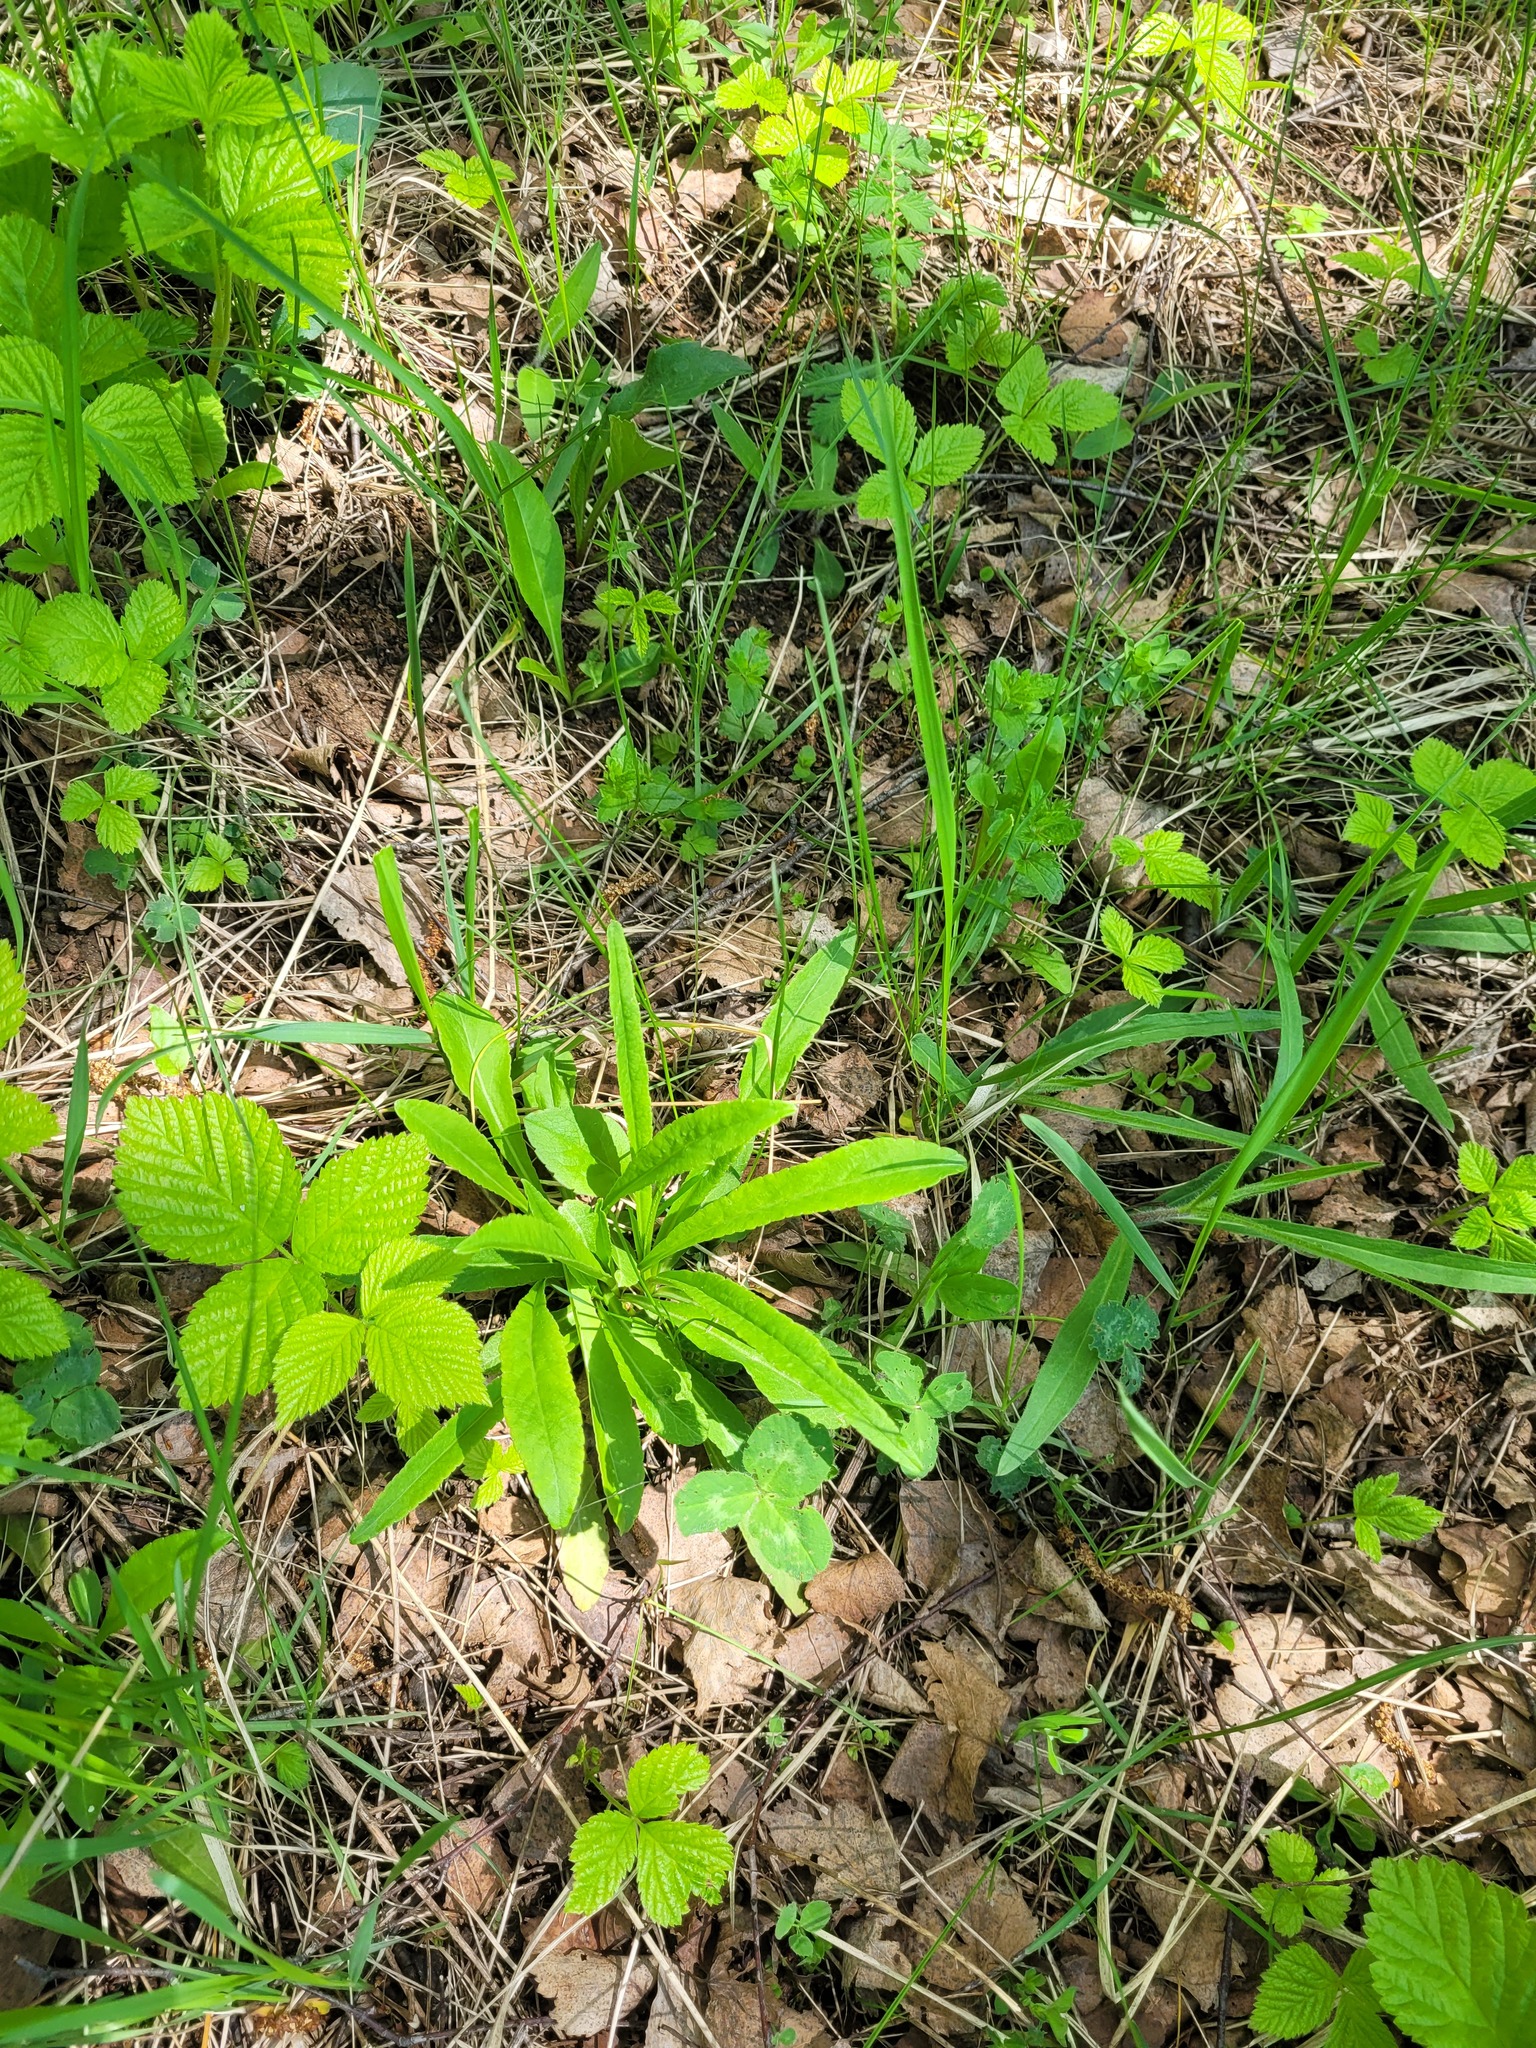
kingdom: Plantae
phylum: Tracheophyta
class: Magnoliopsida
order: Asterales
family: Campanulaceae
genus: Campanula
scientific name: Campanula persicifolia
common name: Peach-leaved bellflower
